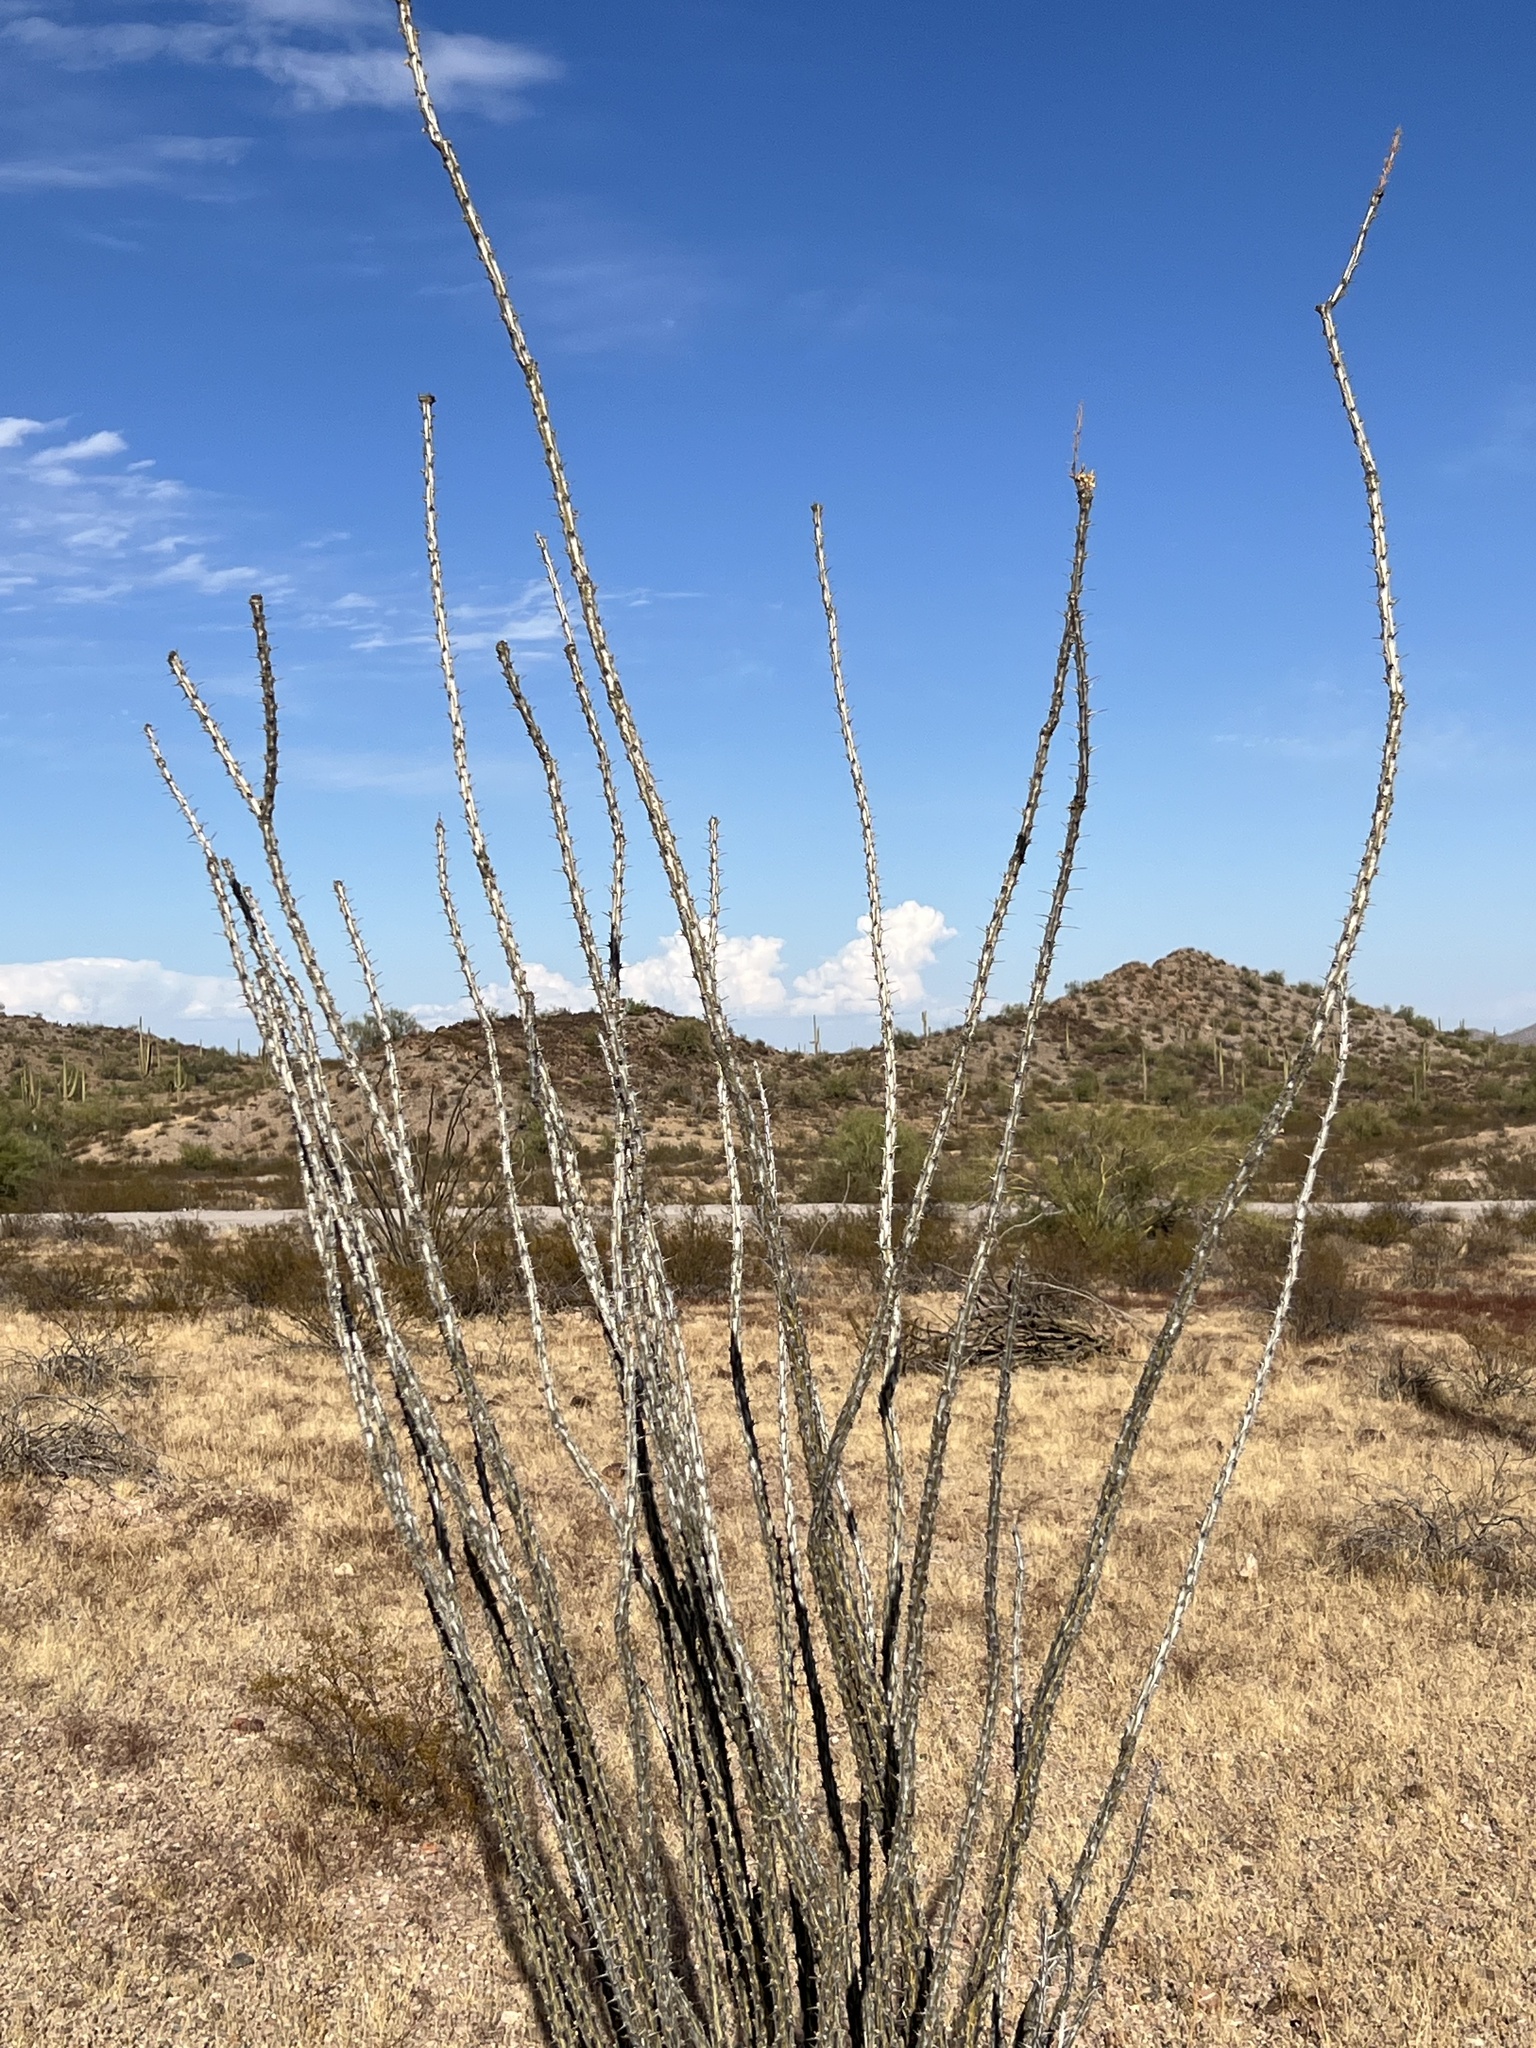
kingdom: Plantae
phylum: Tracheophyta
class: Magnoliopsida
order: Ericales
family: Fouquieriaceae
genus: Fouquieria
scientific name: Fouquieria splendens
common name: Vine-cactus
